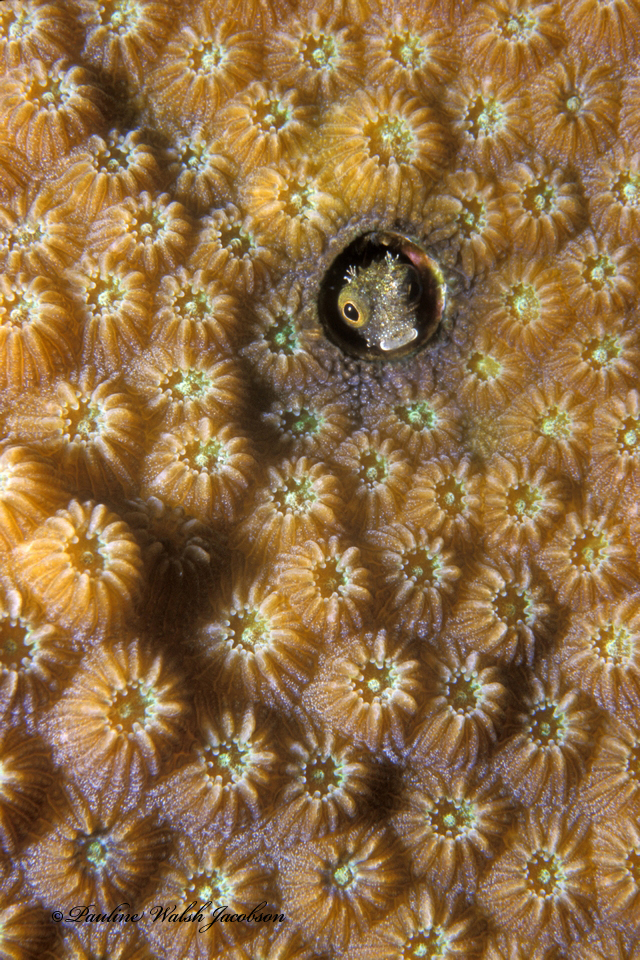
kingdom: Animalia
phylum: Chordata
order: Perciformes
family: Chaenopsidae
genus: Acanthemblemaria
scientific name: Acanthemblemaria spinosa
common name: Spinyhead blenny
